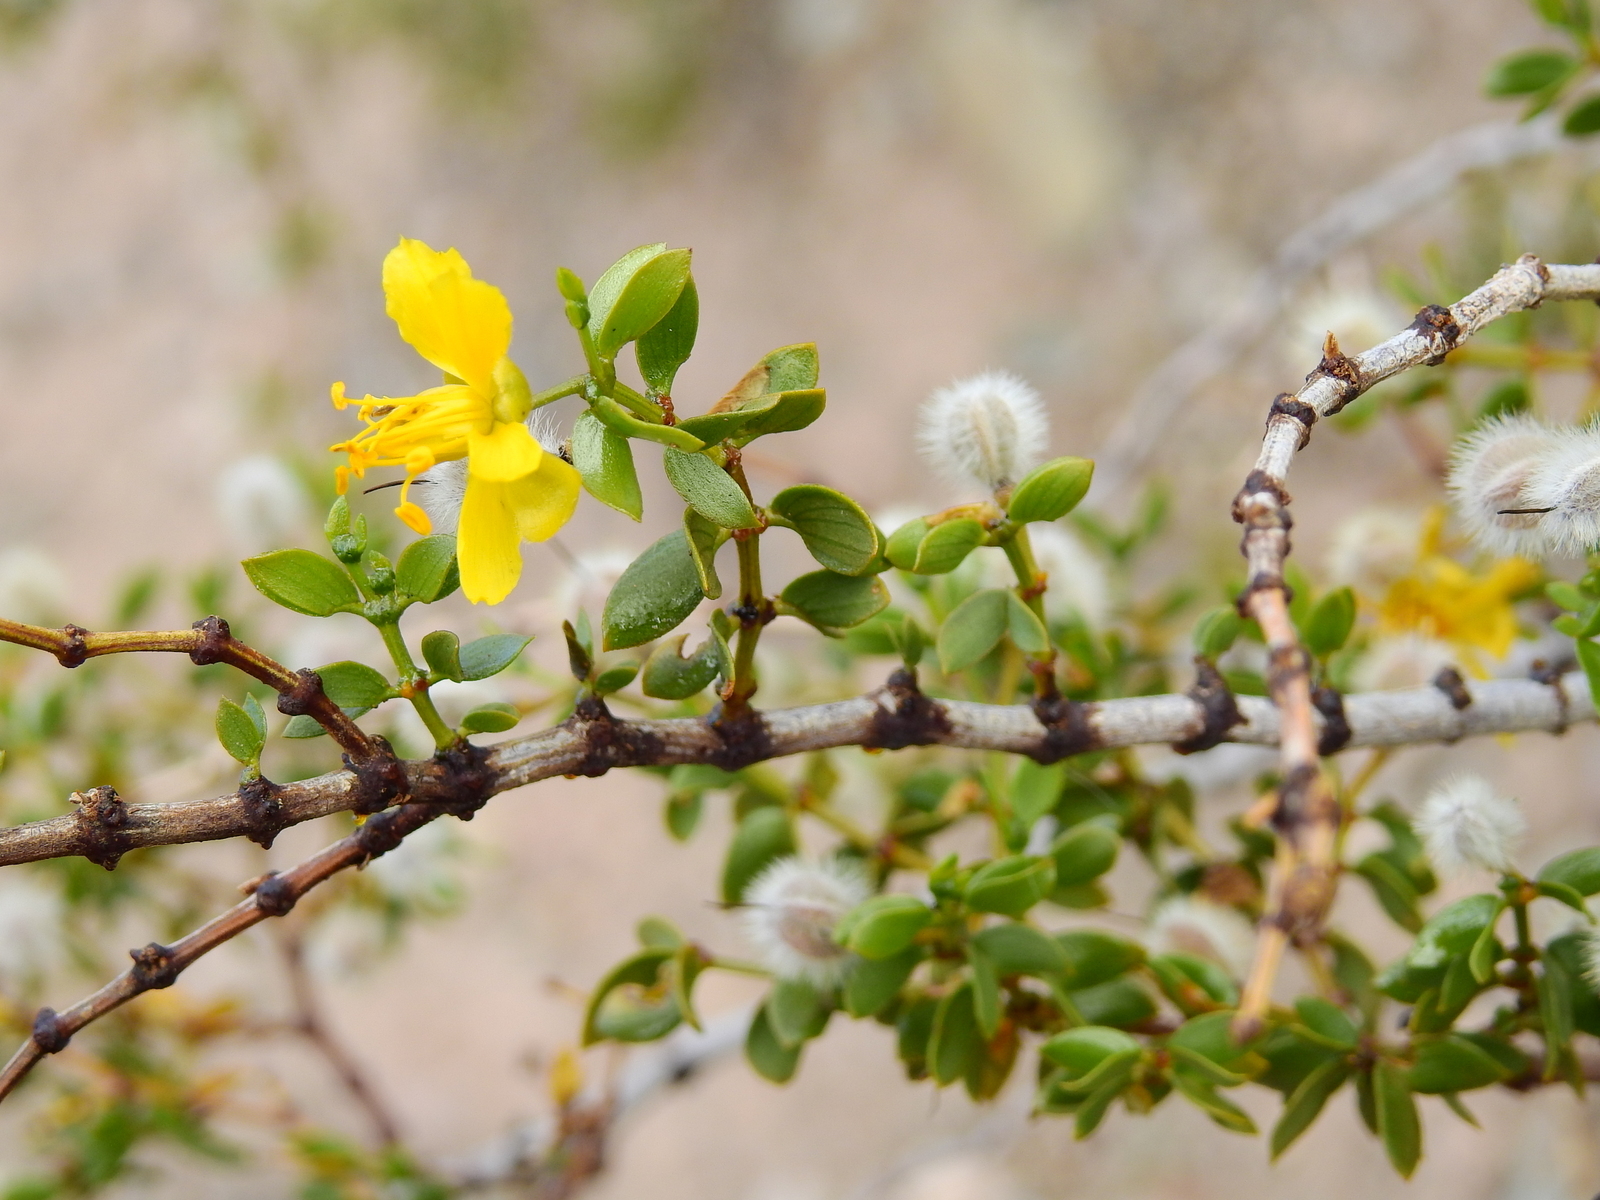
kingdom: Plantae
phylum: Tracheophyta
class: Magnoliopsida
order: Zygophyllales
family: Zygophyllaceae
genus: Larrea
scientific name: Larrea divaricata
